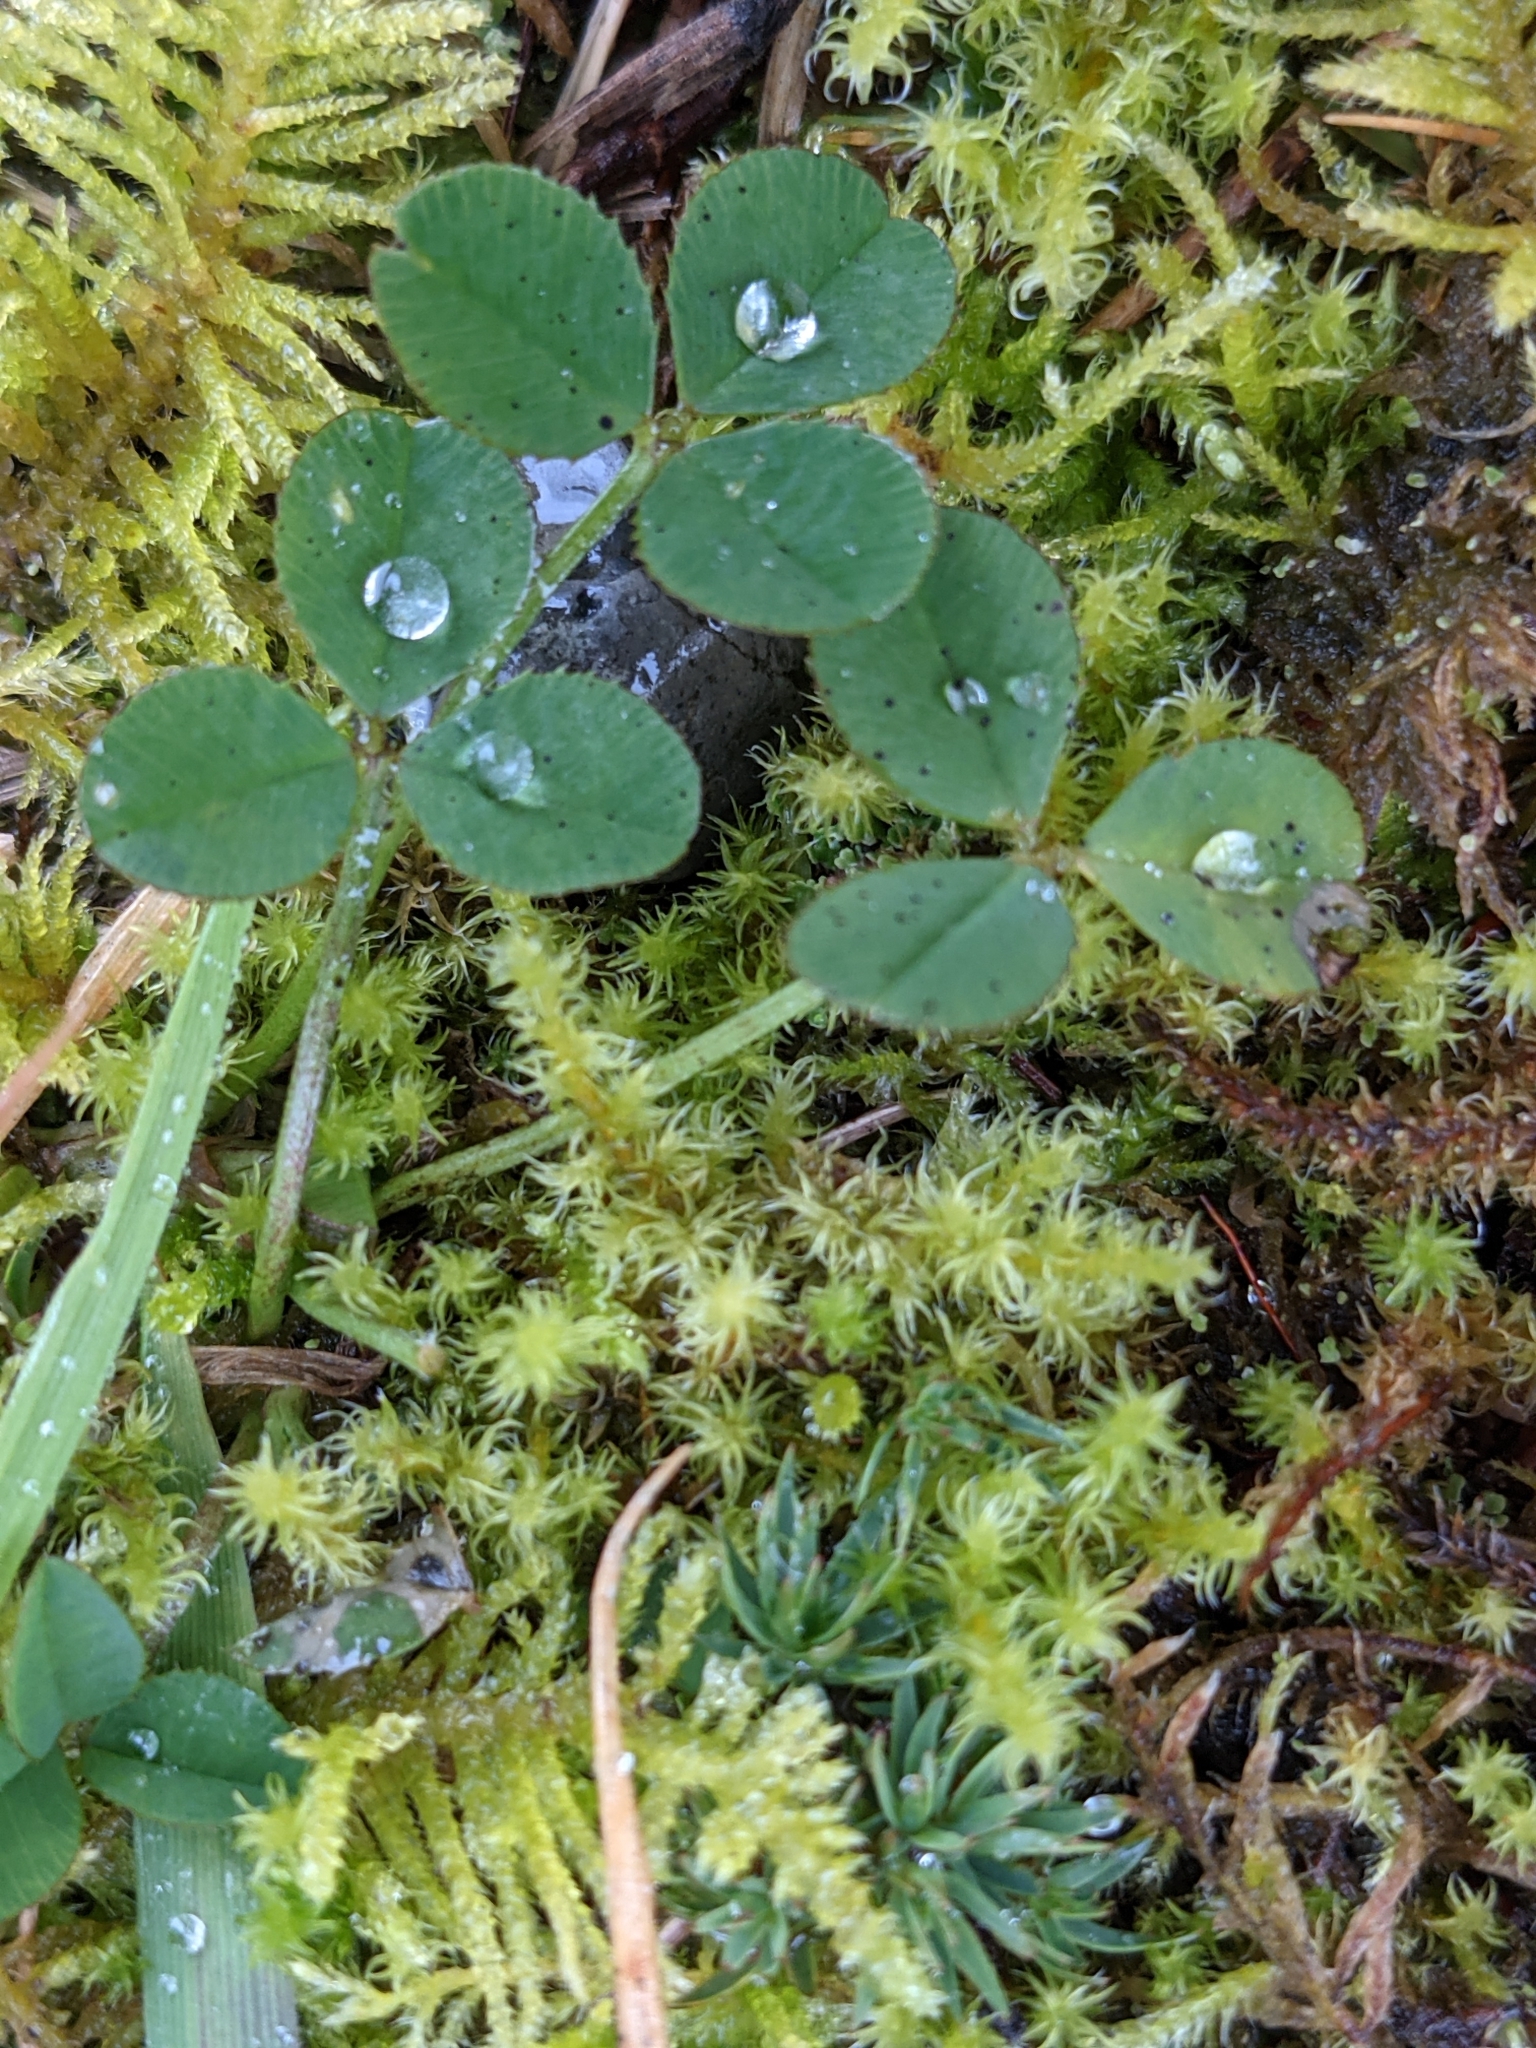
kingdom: Plantae
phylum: Tracheophyta
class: Magnoliopsida
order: Fabales
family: Fabaceae
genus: Trifolium
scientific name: Trifolium repens
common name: White clover
